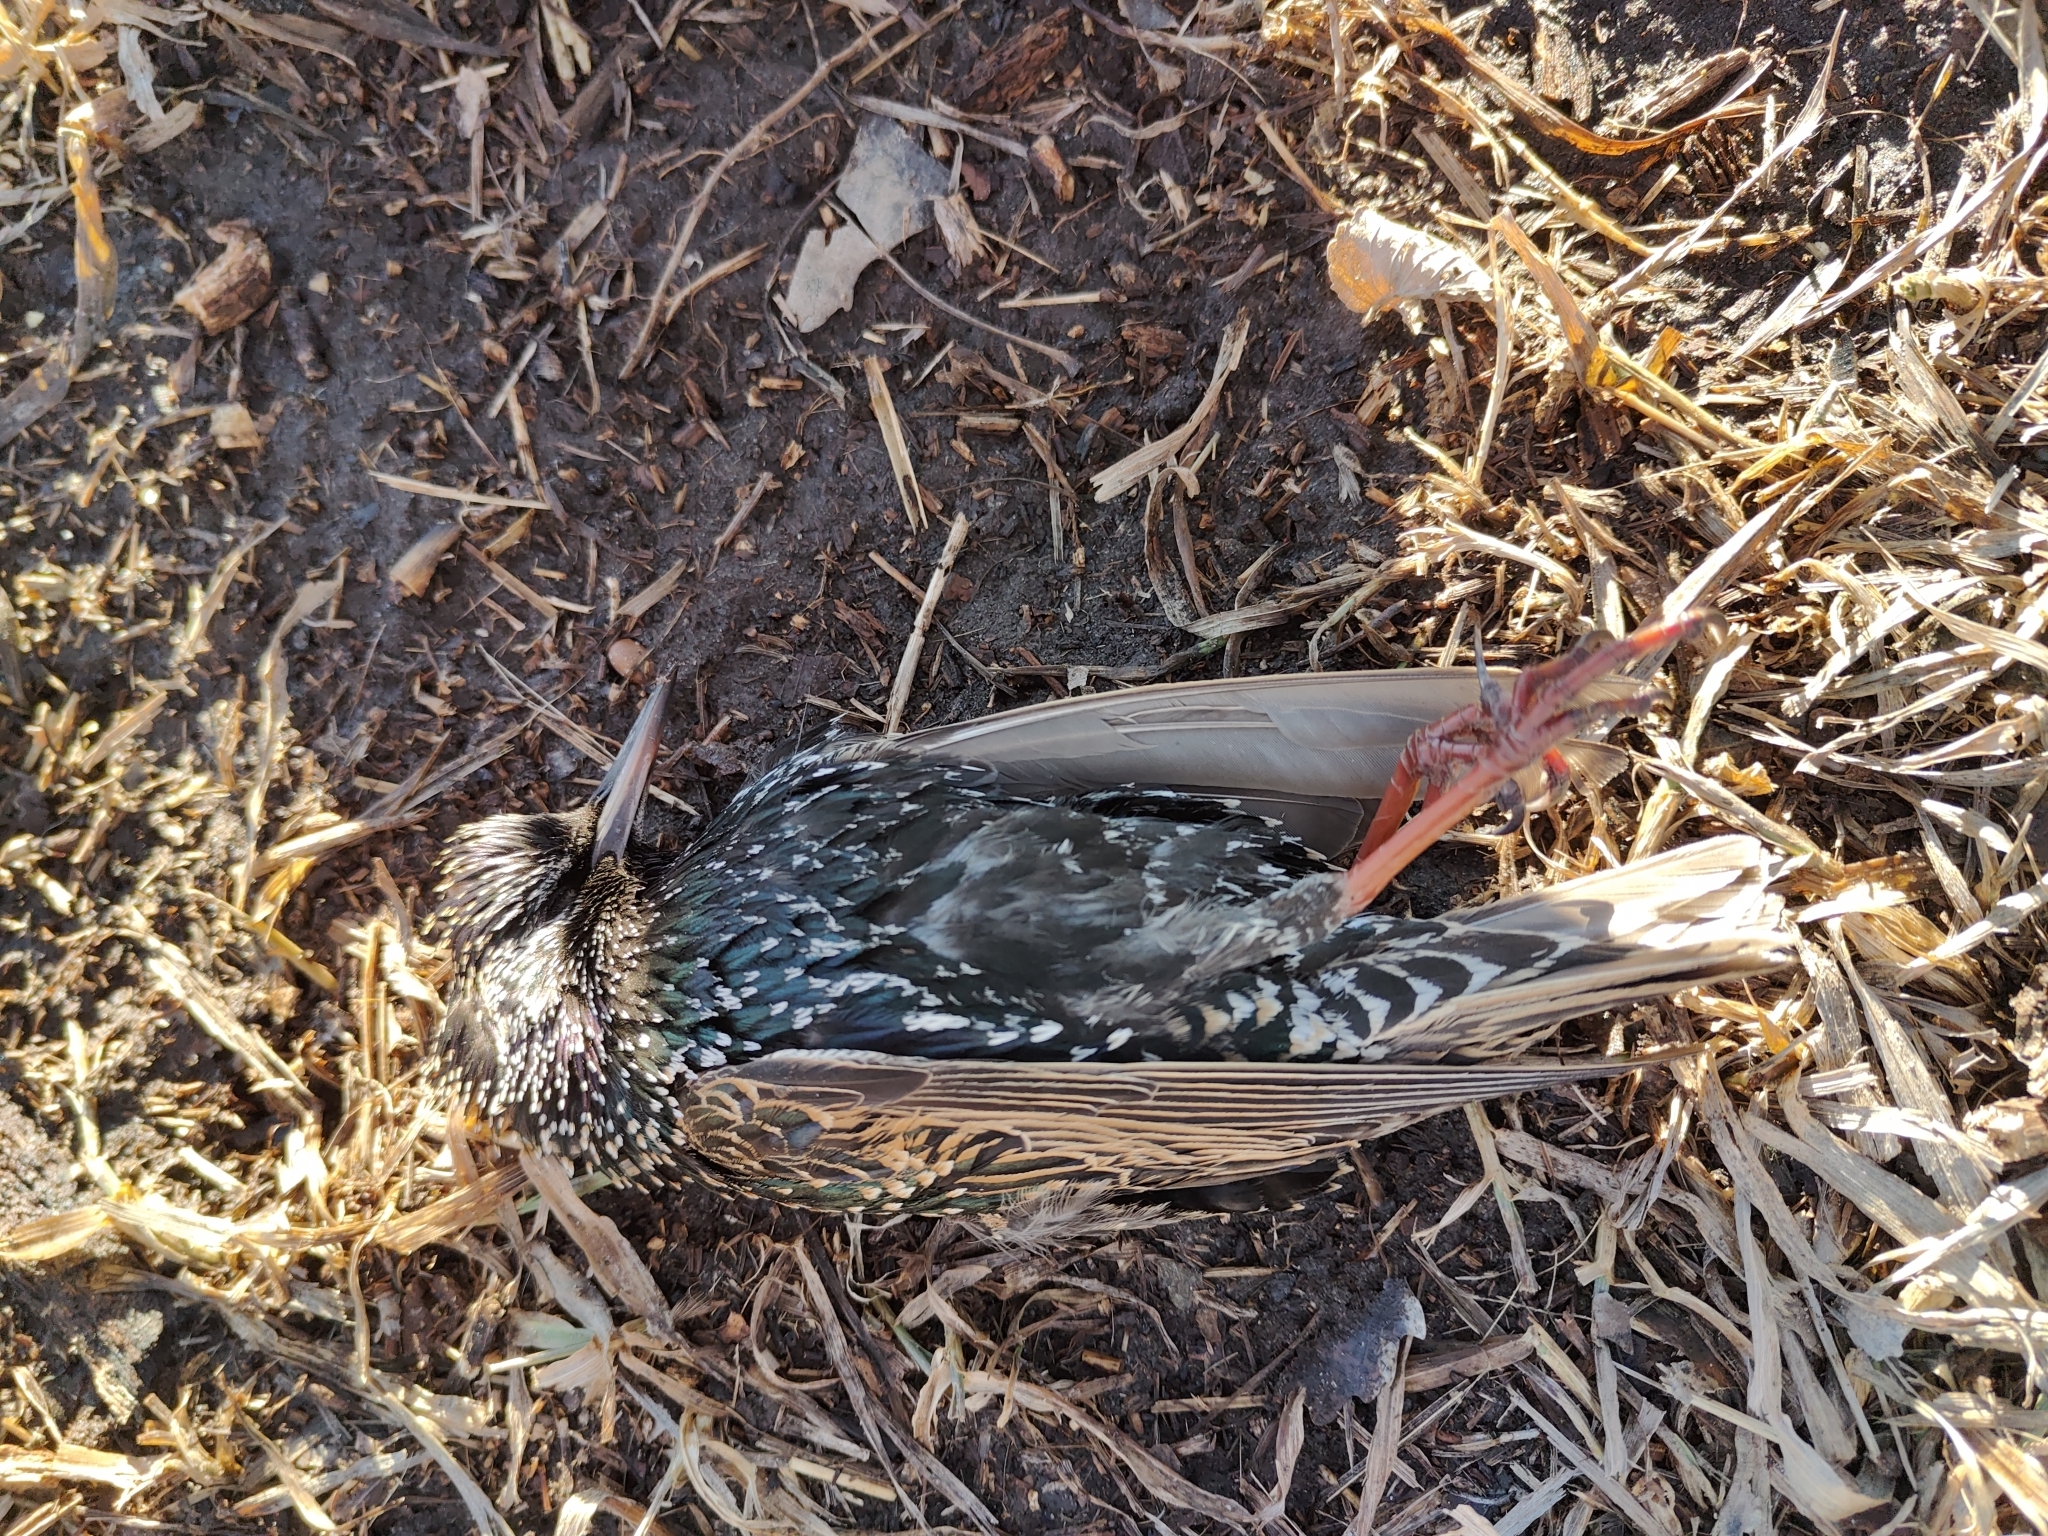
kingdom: Animalia
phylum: Chordata
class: Aves
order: Passeriformes
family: Sturnidae
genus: Sturnus
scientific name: Sturnus vulgaris
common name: Common starling
